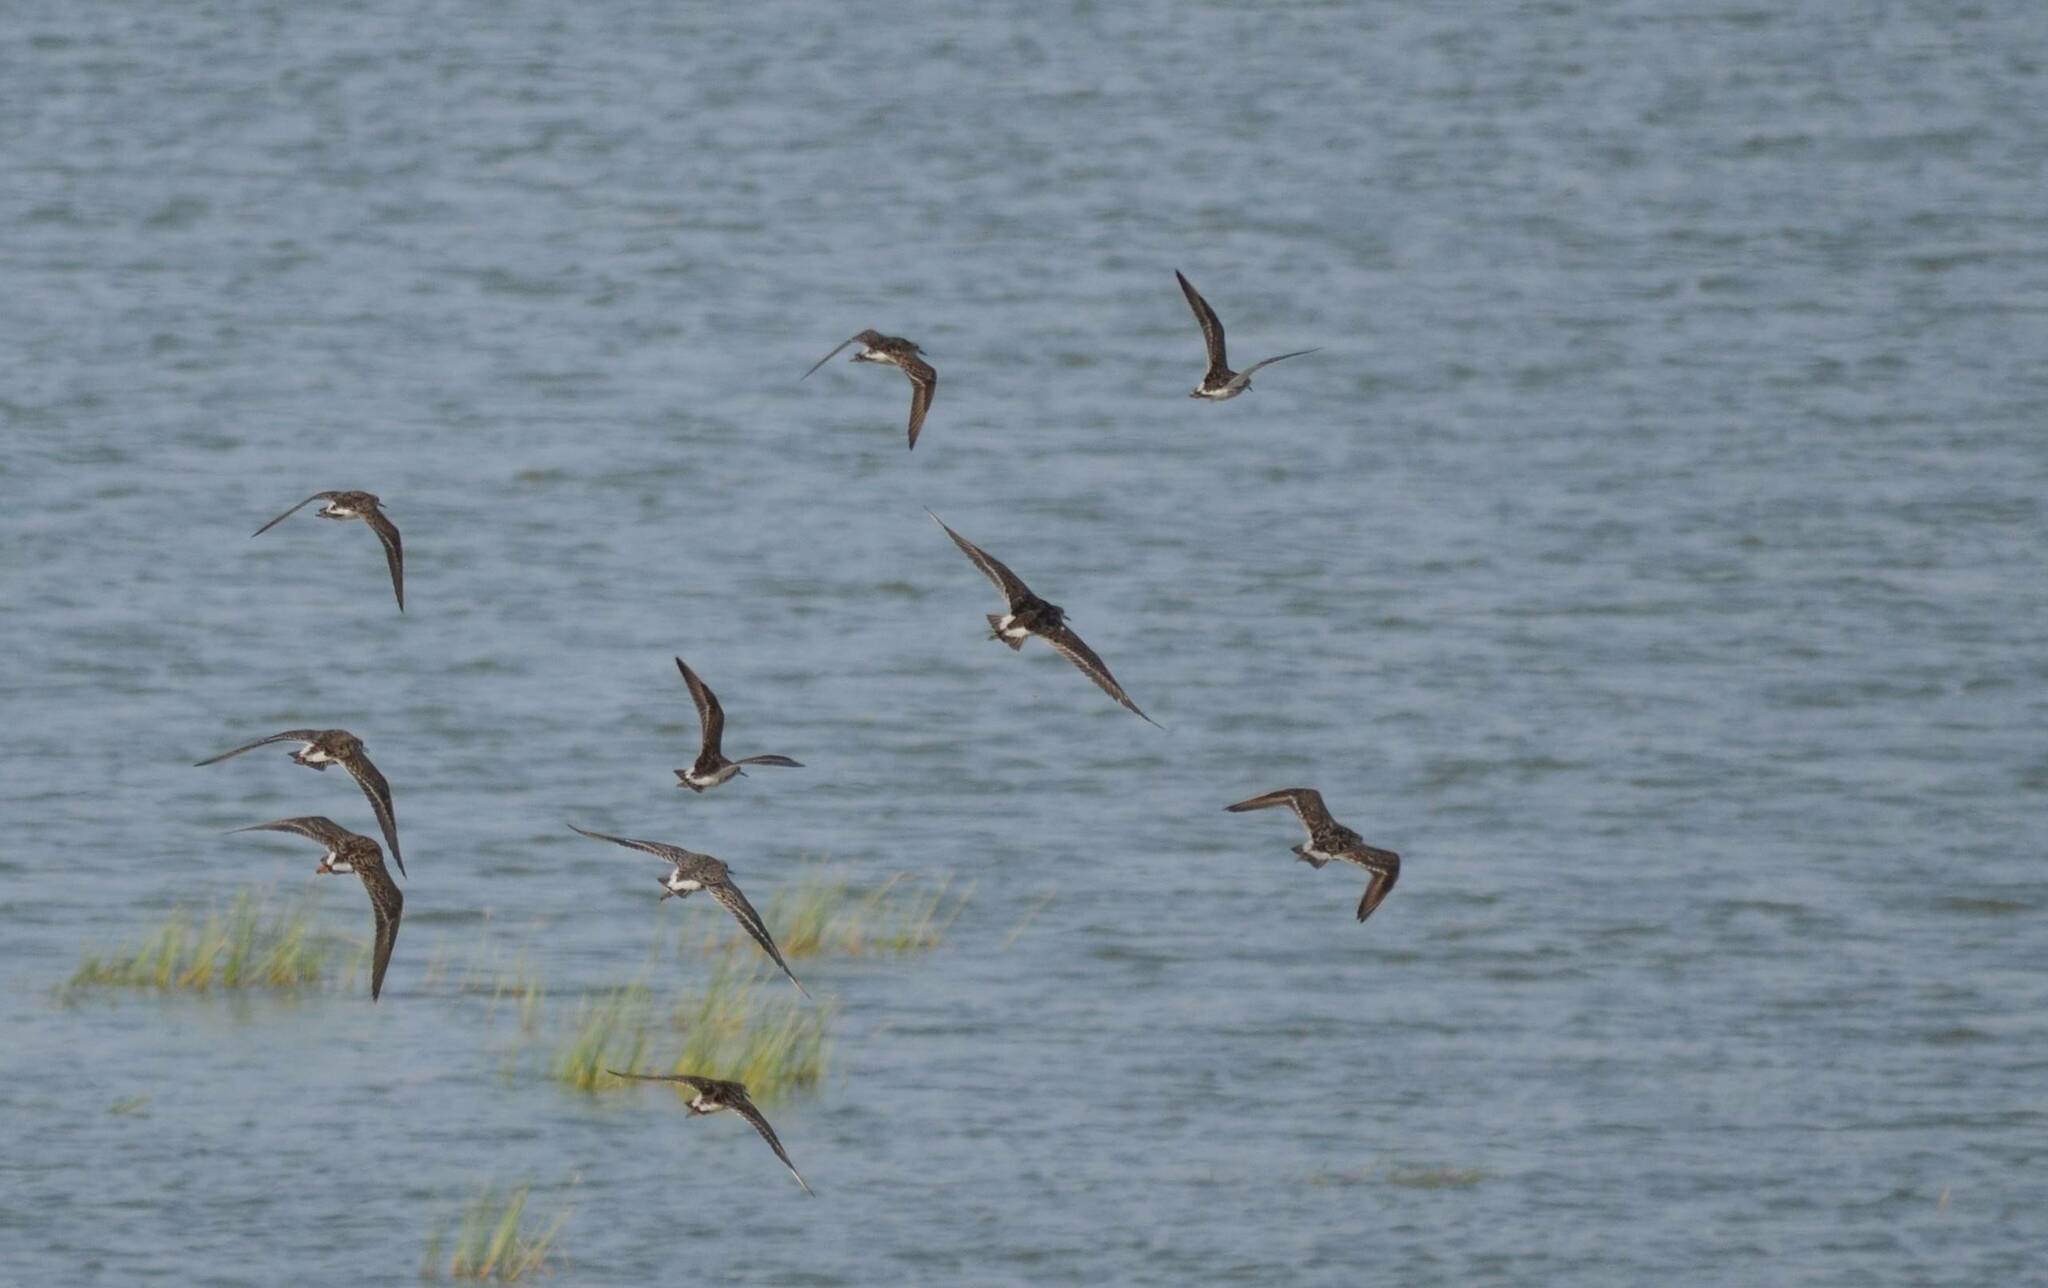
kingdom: Animalia
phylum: Chordata
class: Aves
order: Charadriiformes
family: Scolopacidae
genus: Calidris
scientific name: Calidris pugnax
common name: Ruff
